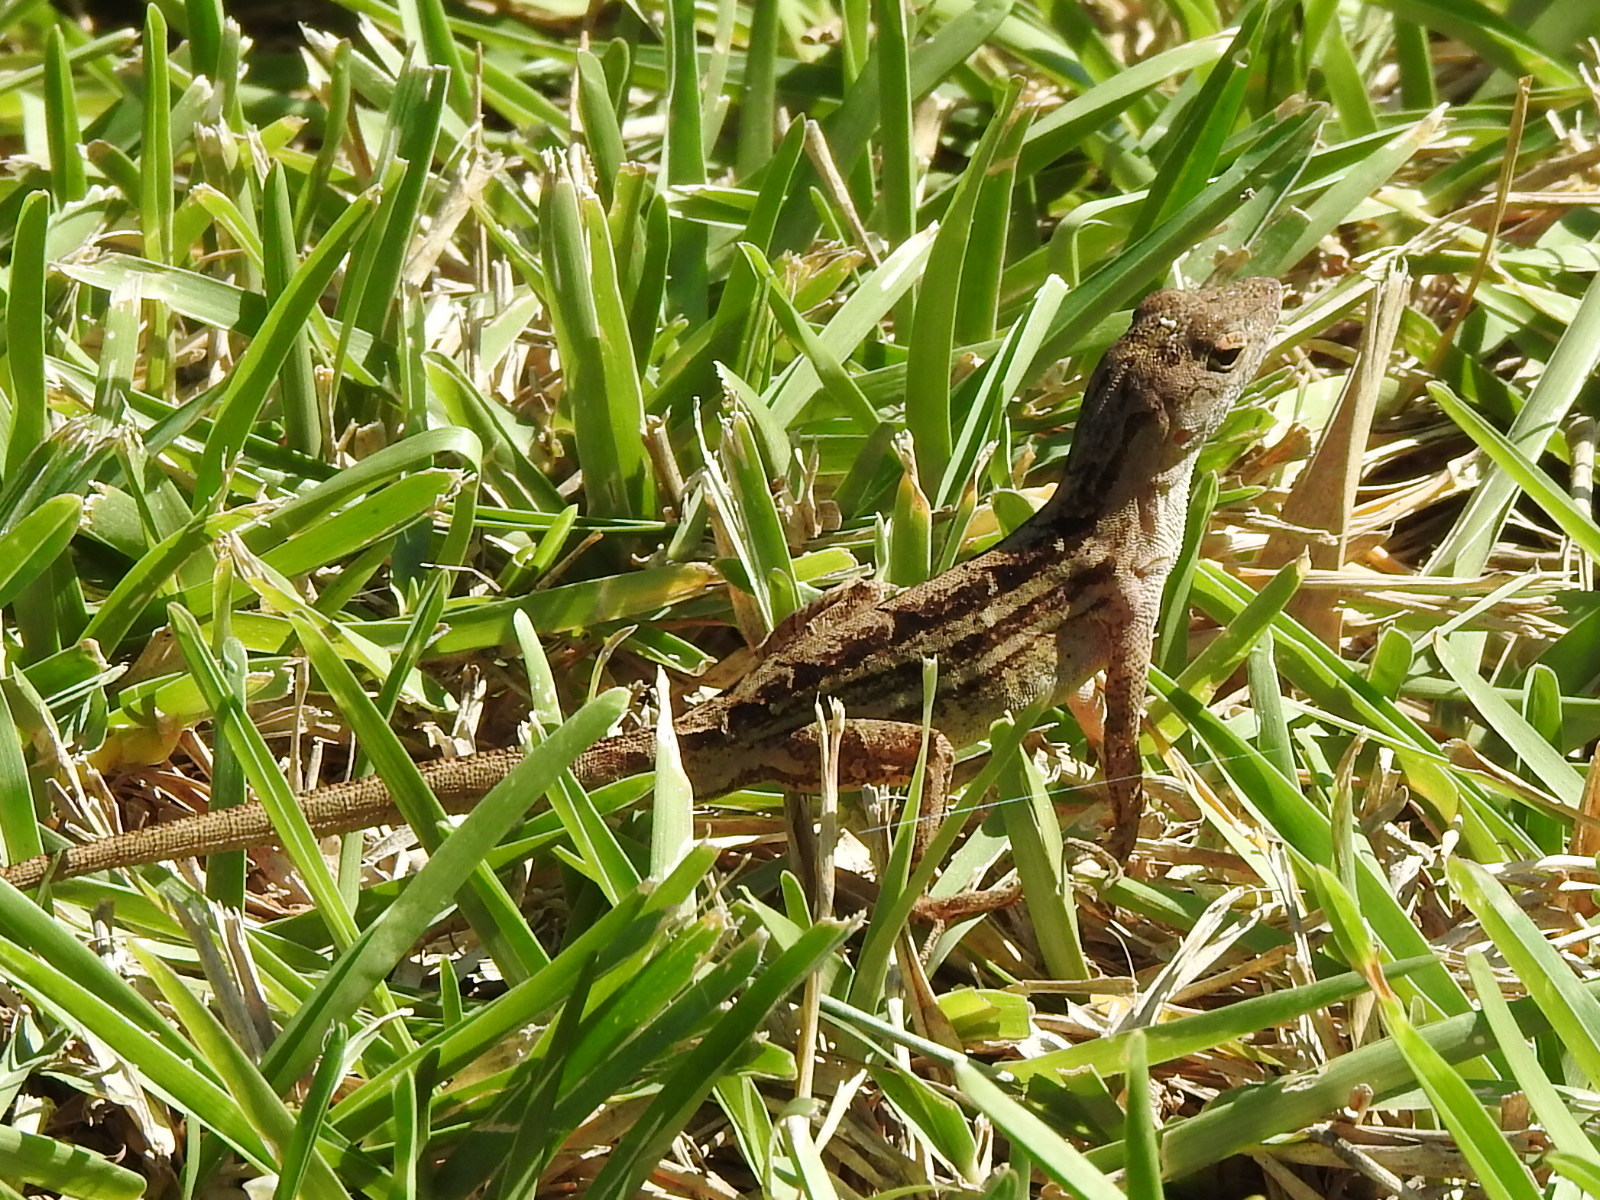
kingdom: Animalia
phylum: Chordata
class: Squamata
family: Dactyloidae
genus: Anolis
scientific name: Anolis sagrei
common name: Brown anole
